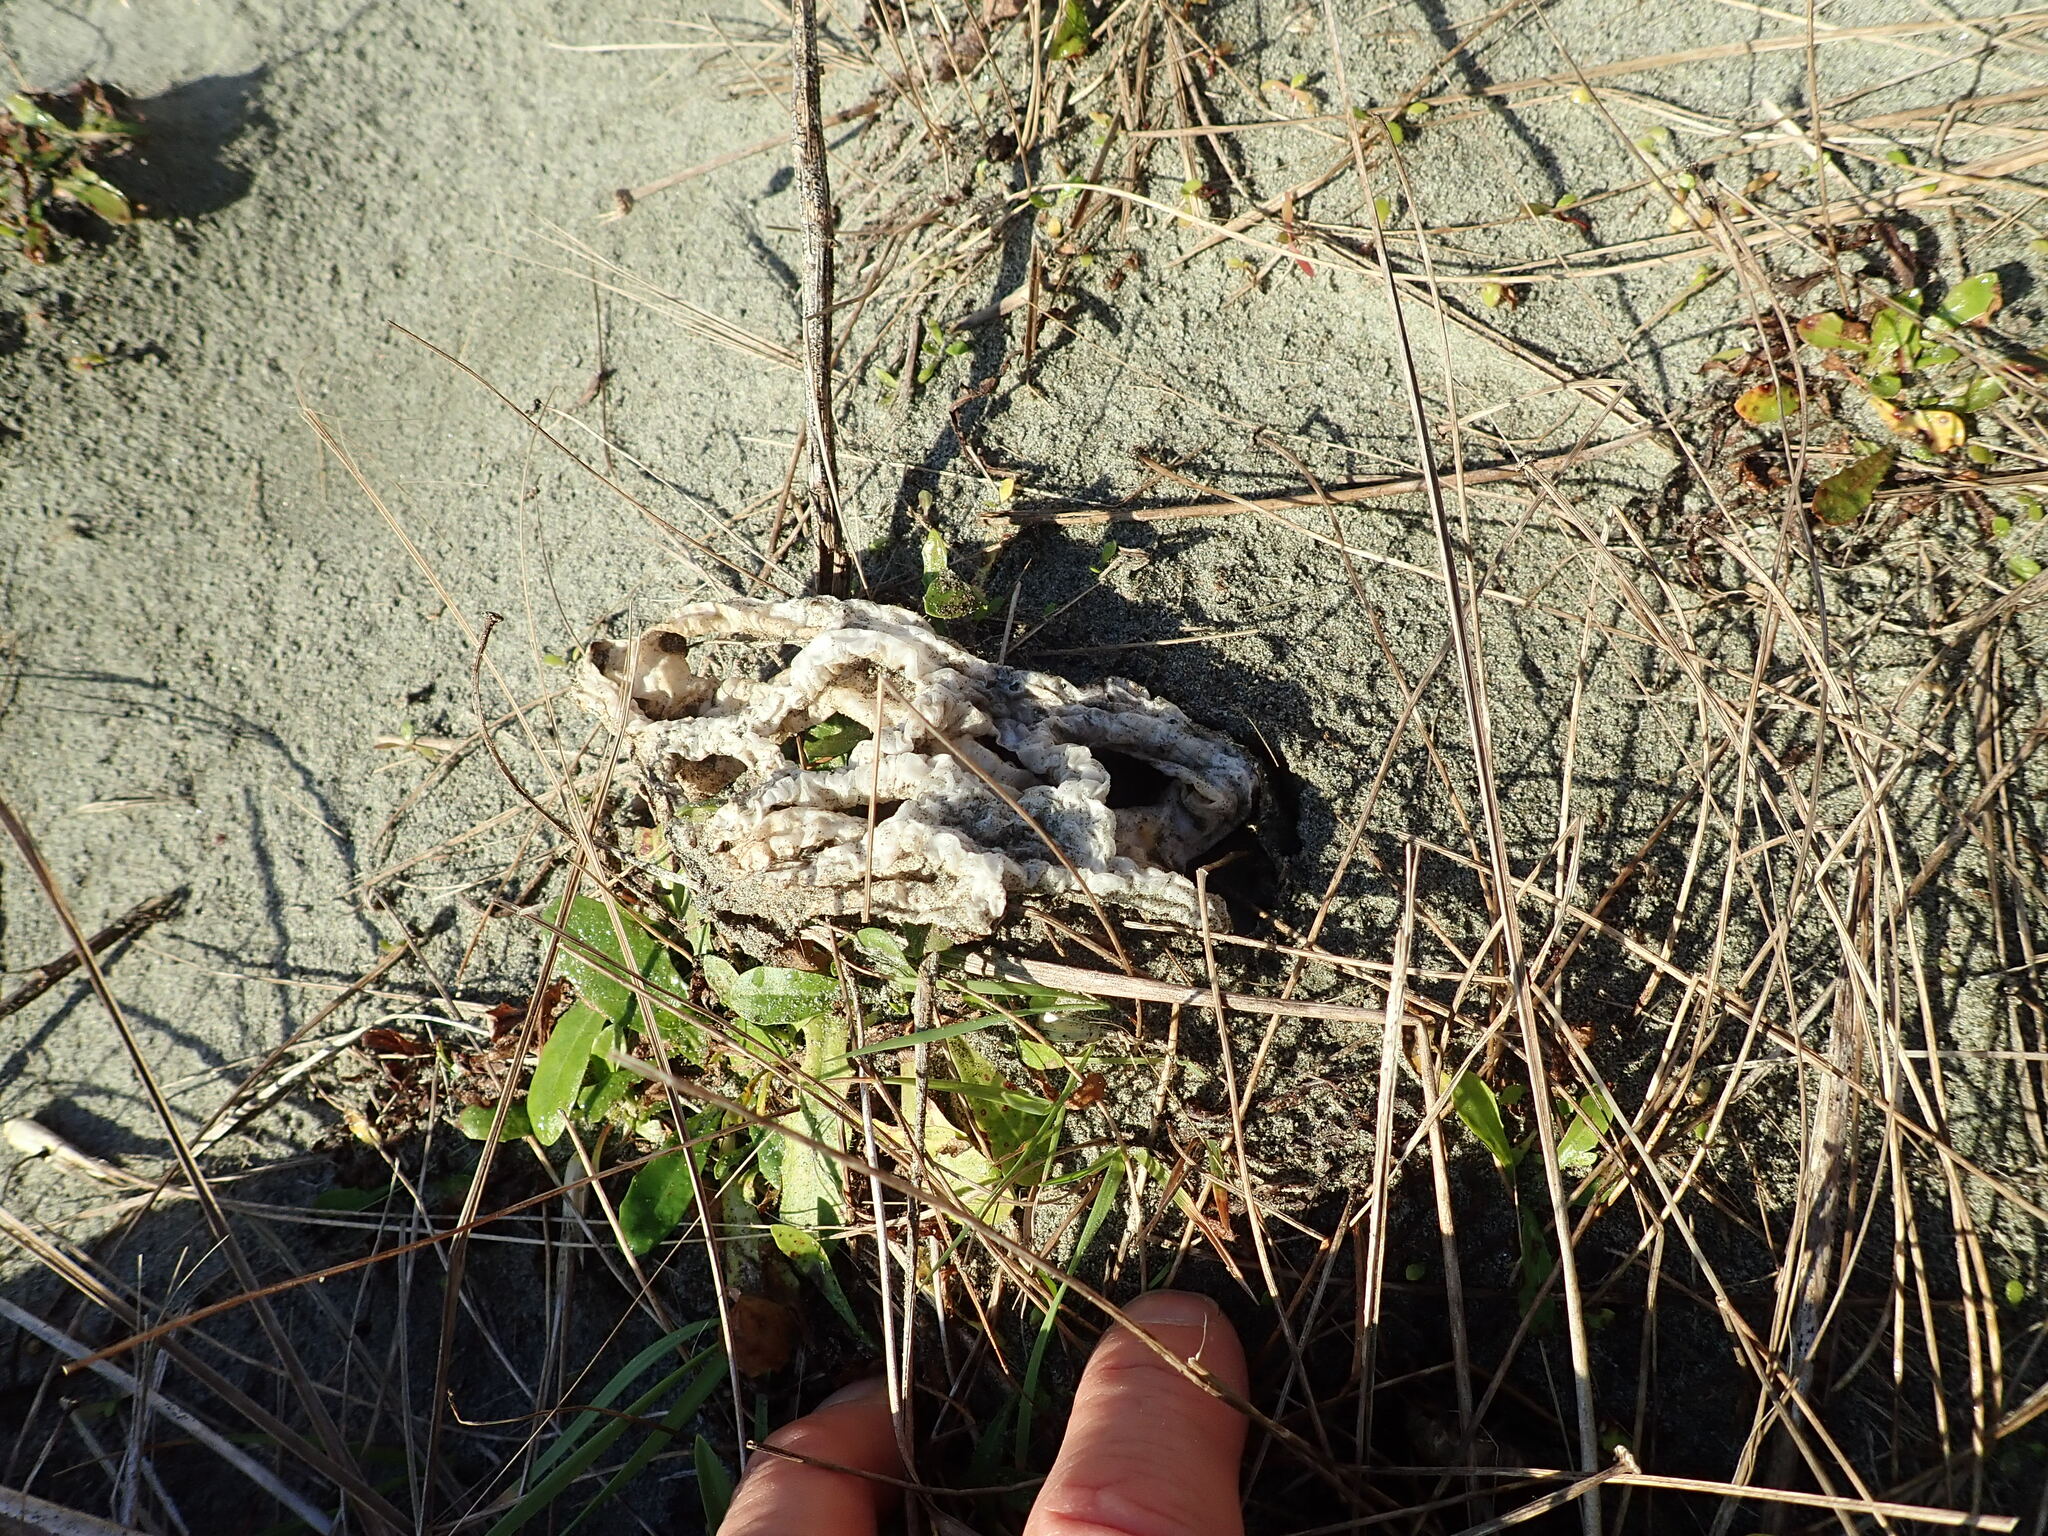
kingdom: Fungi
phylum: Basidiomycota
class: Agaricomycetes
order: Phallales
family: Phallaceae
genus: Ileodictyon
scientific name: Ileodictyon cibarium
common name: Basket fungus
